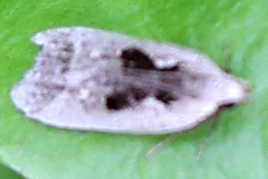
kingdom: Animalia
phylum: Arthropoda
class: Insecta
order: Lepidoptera
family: Gelechiidae
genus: Dichomeris
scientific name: Dichomeris bilobella
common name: Bilobed dichomeris moth
